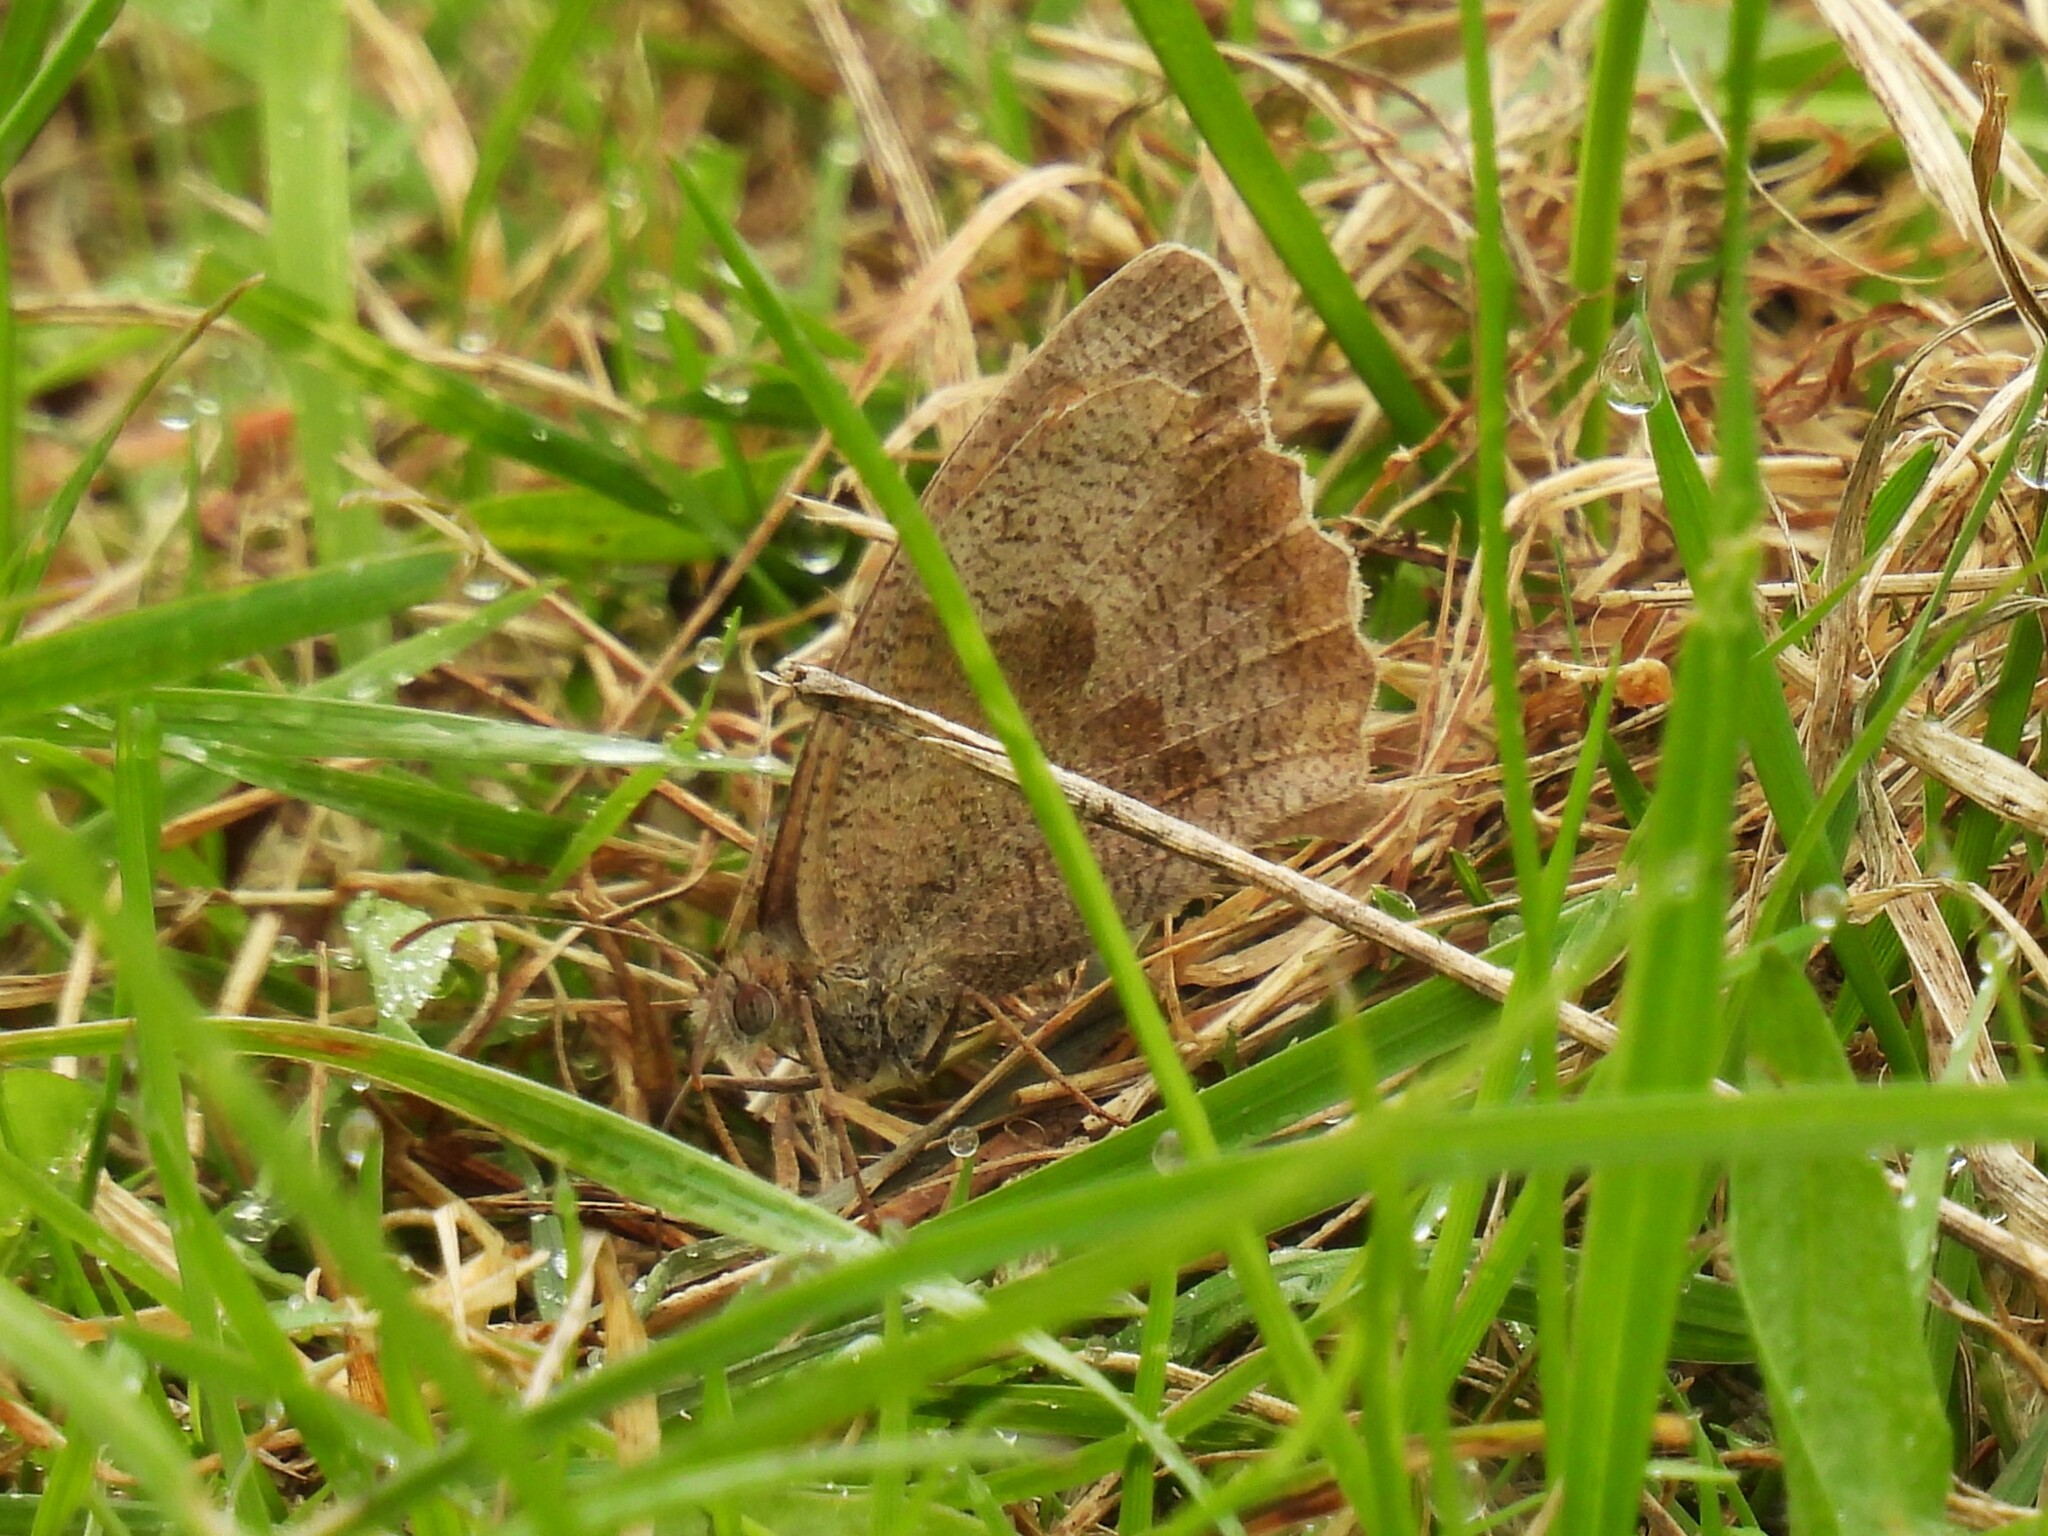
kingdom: Animalia
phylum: Arthropoda
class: Insecta
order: Lepidoptera
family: Nymphalidae
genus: Maniola
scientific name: Maniola jurtina
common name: Meadow brown
